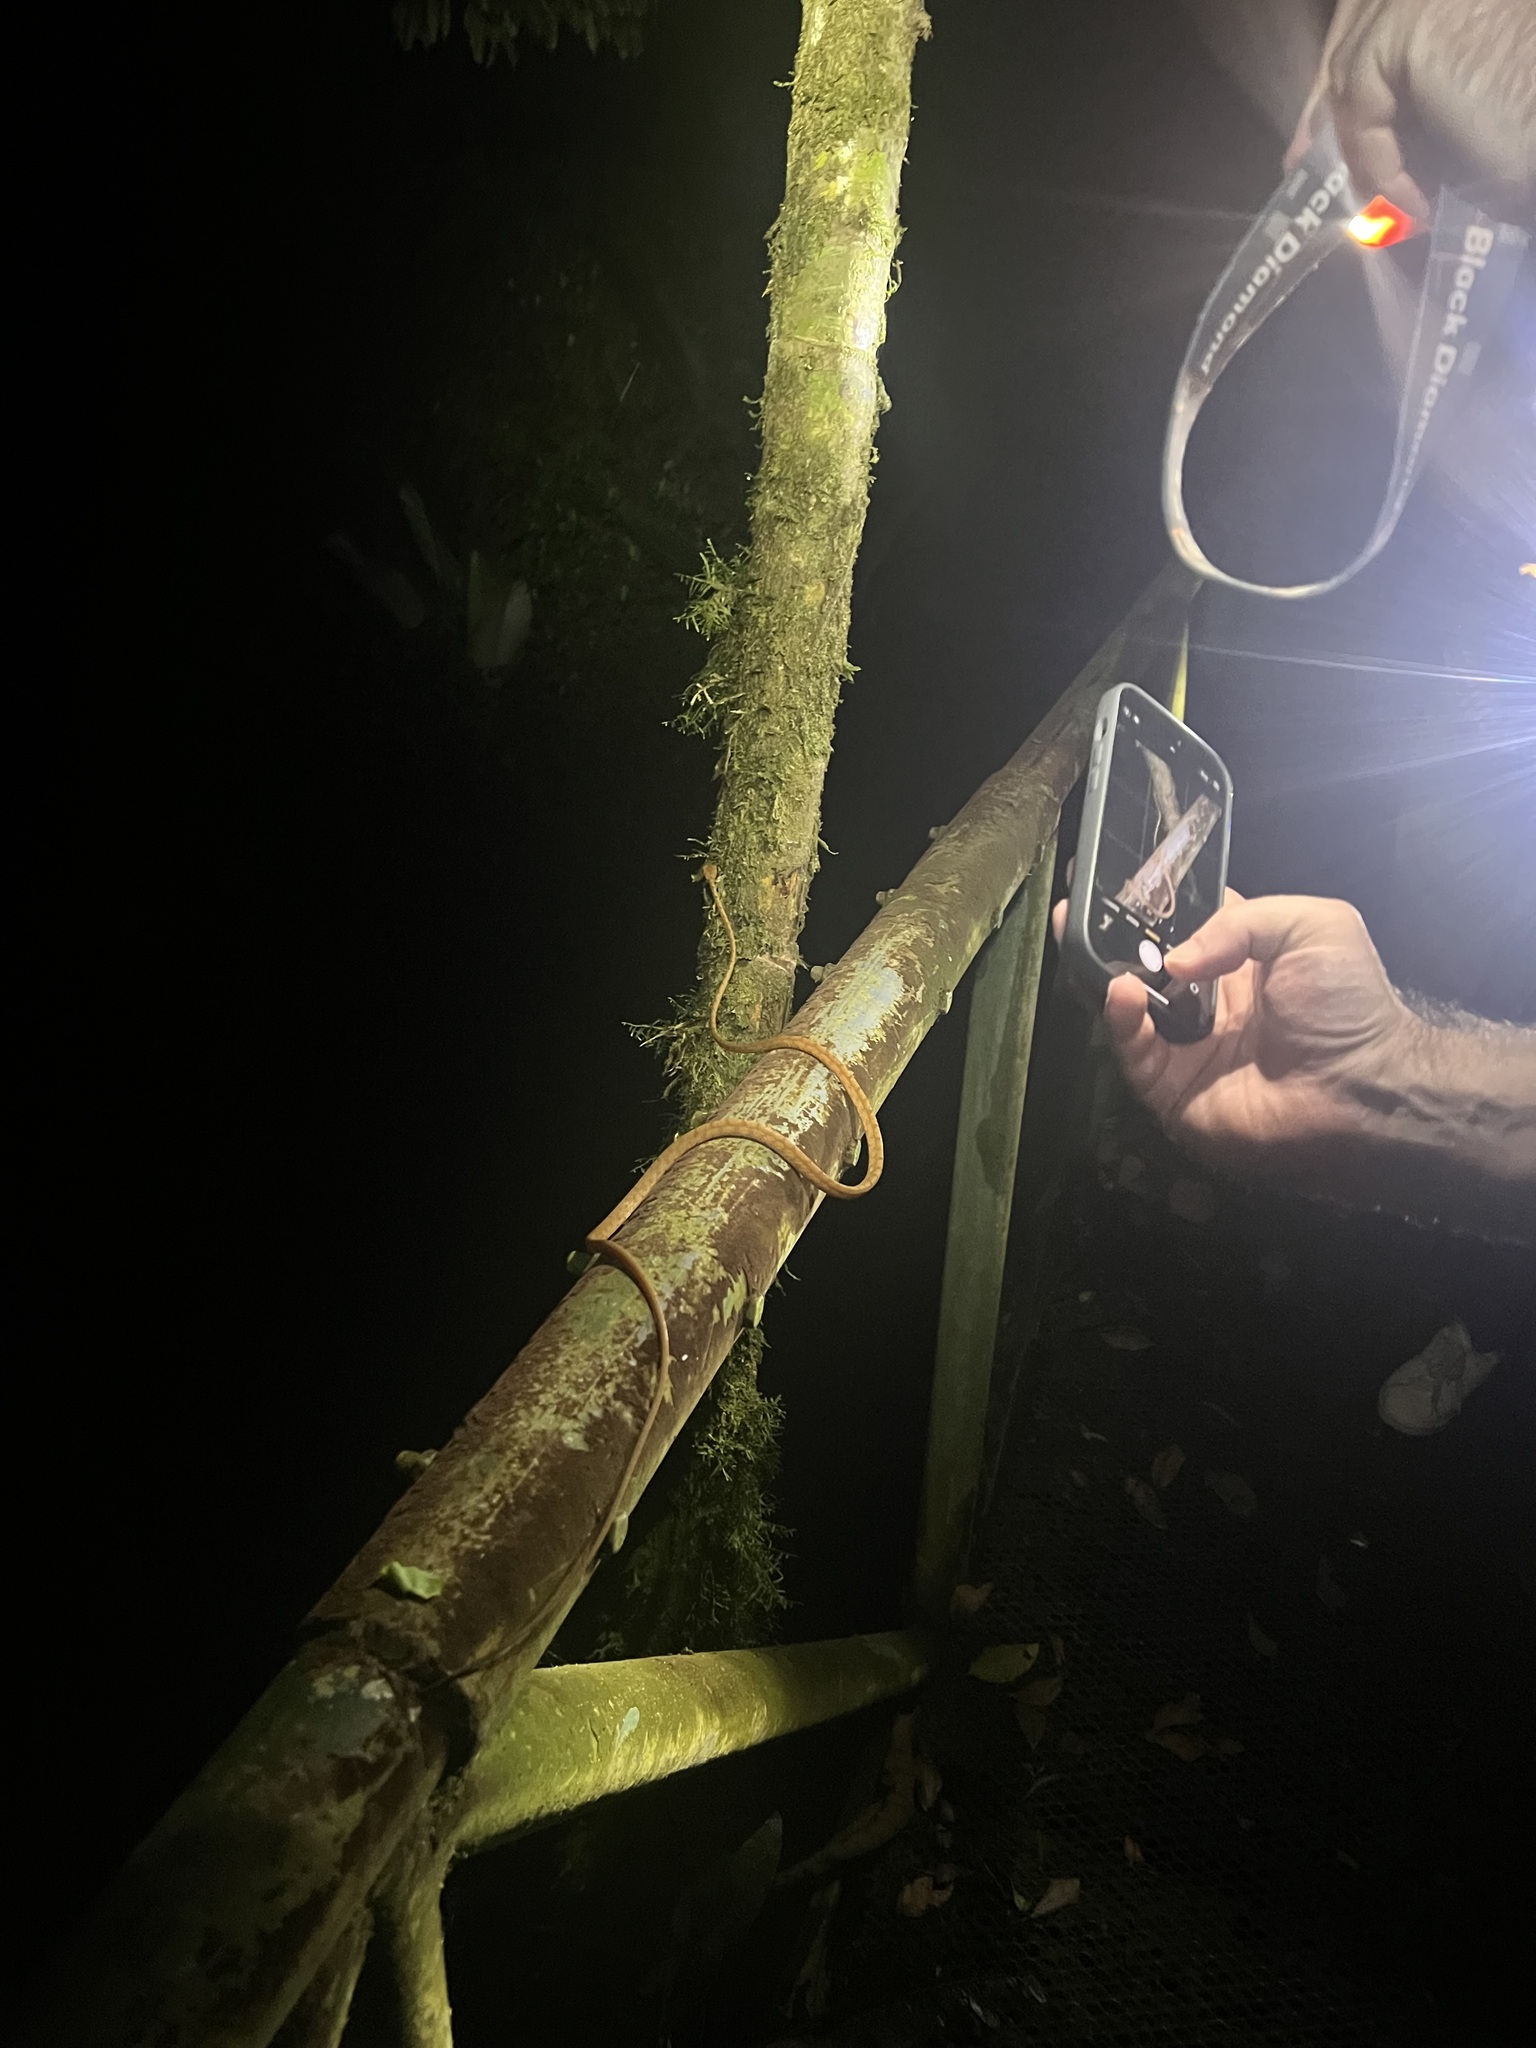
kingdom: Animalia
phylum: Chordata
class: Squamata
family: Colubridae
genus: Imantodes
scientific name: Imantodes inornatus
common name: Western tree snake
